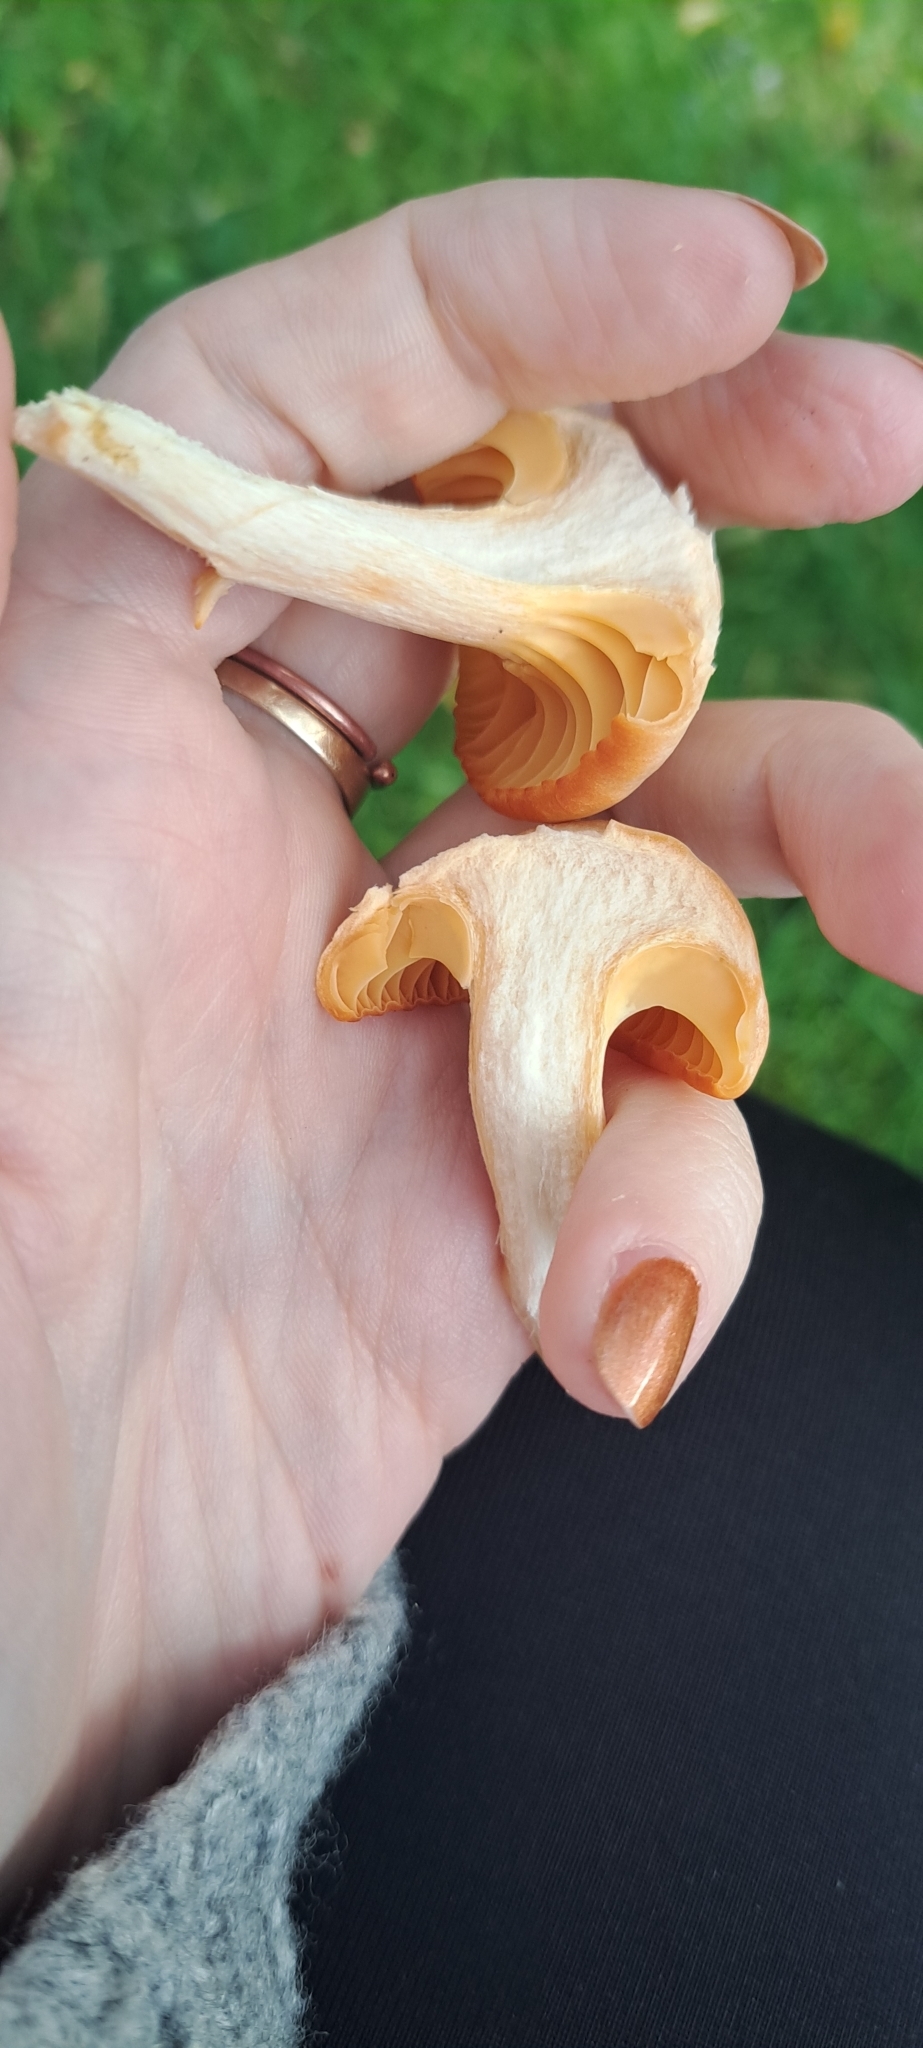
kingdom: Fungi
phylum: Basidiomycota
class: Agaricomycetes
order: Agaricales
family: Hygrophoraceae
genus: Cuphophyllus
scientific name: Cuphophyllus pratensis
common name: Meadow waxcap
